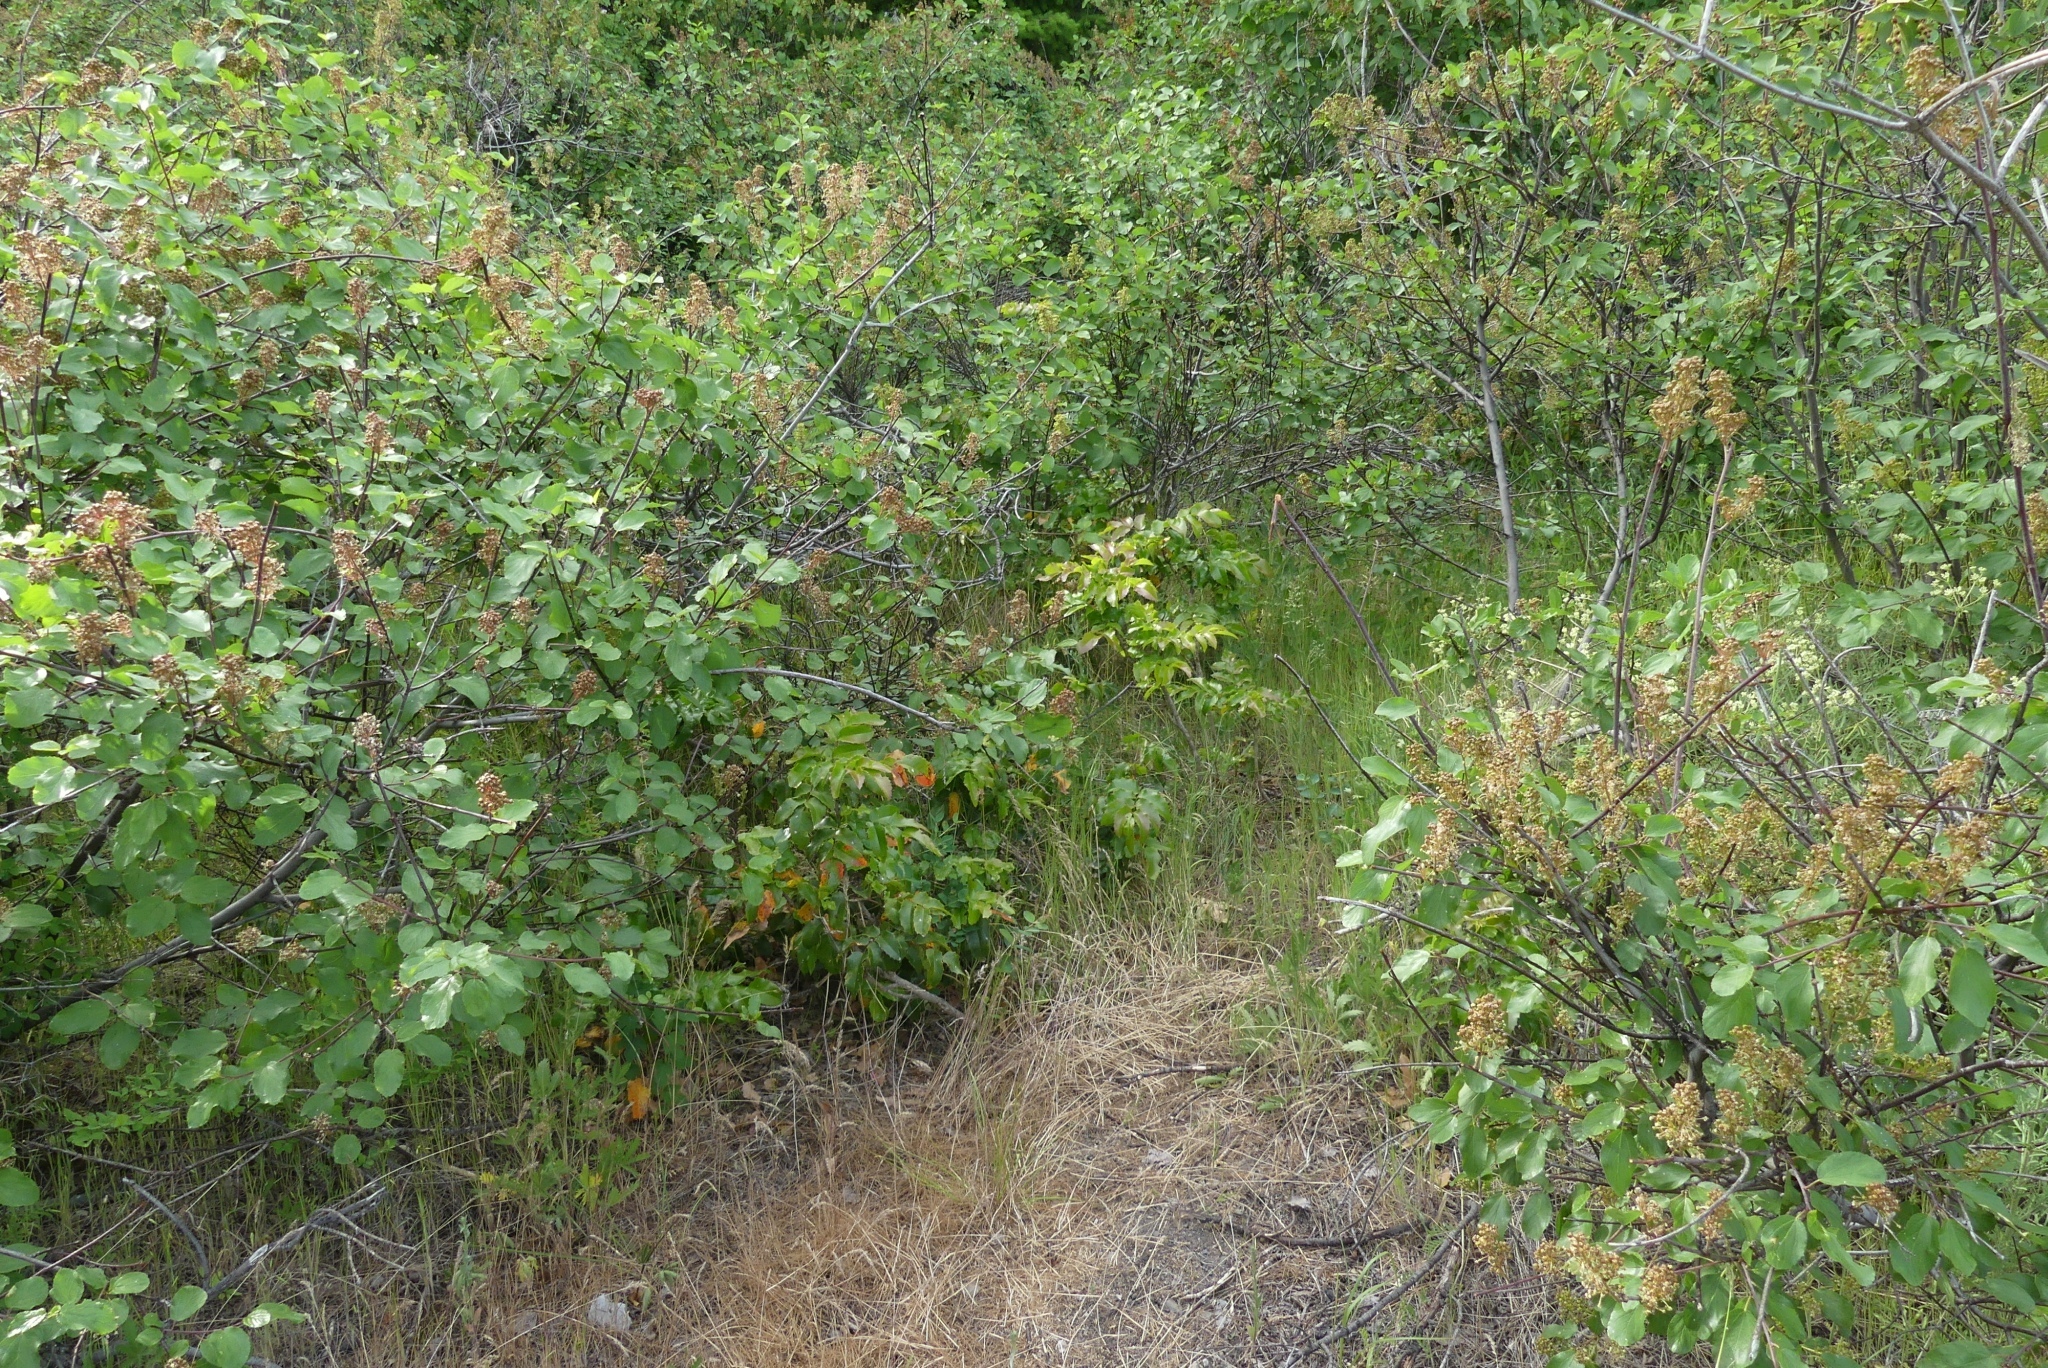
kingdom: Plantae
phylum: Tracheophyta
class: Magnoliopsida
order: Ranunculales
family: Berberidaceae
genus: Mahonia
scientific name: Mahonia aquifolium
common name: Oregon-grape
